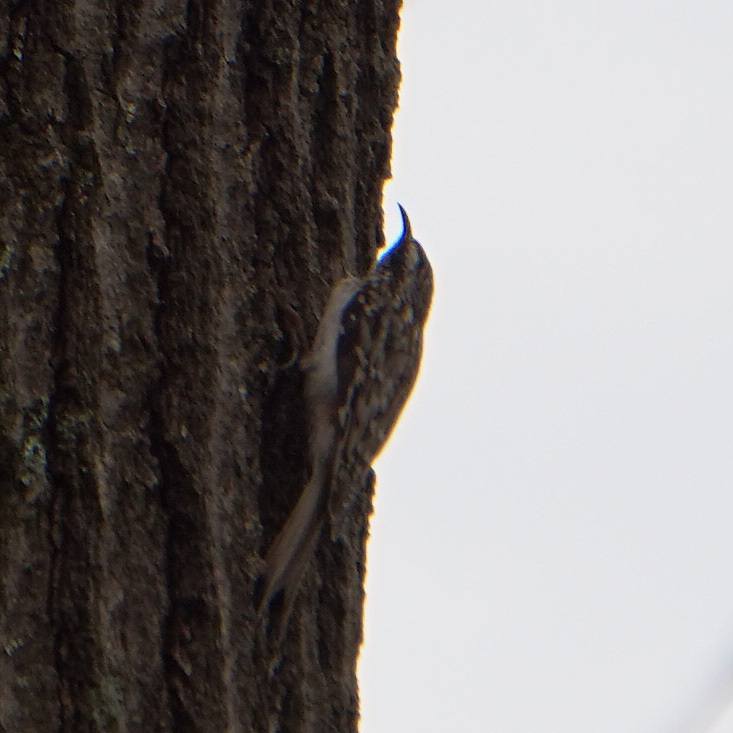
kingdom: Animalia
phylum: Chordata
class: Aves
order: Passeriformes
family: Certhiidae
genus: Certhia
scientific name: Certhia americana
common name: Brown creeper
